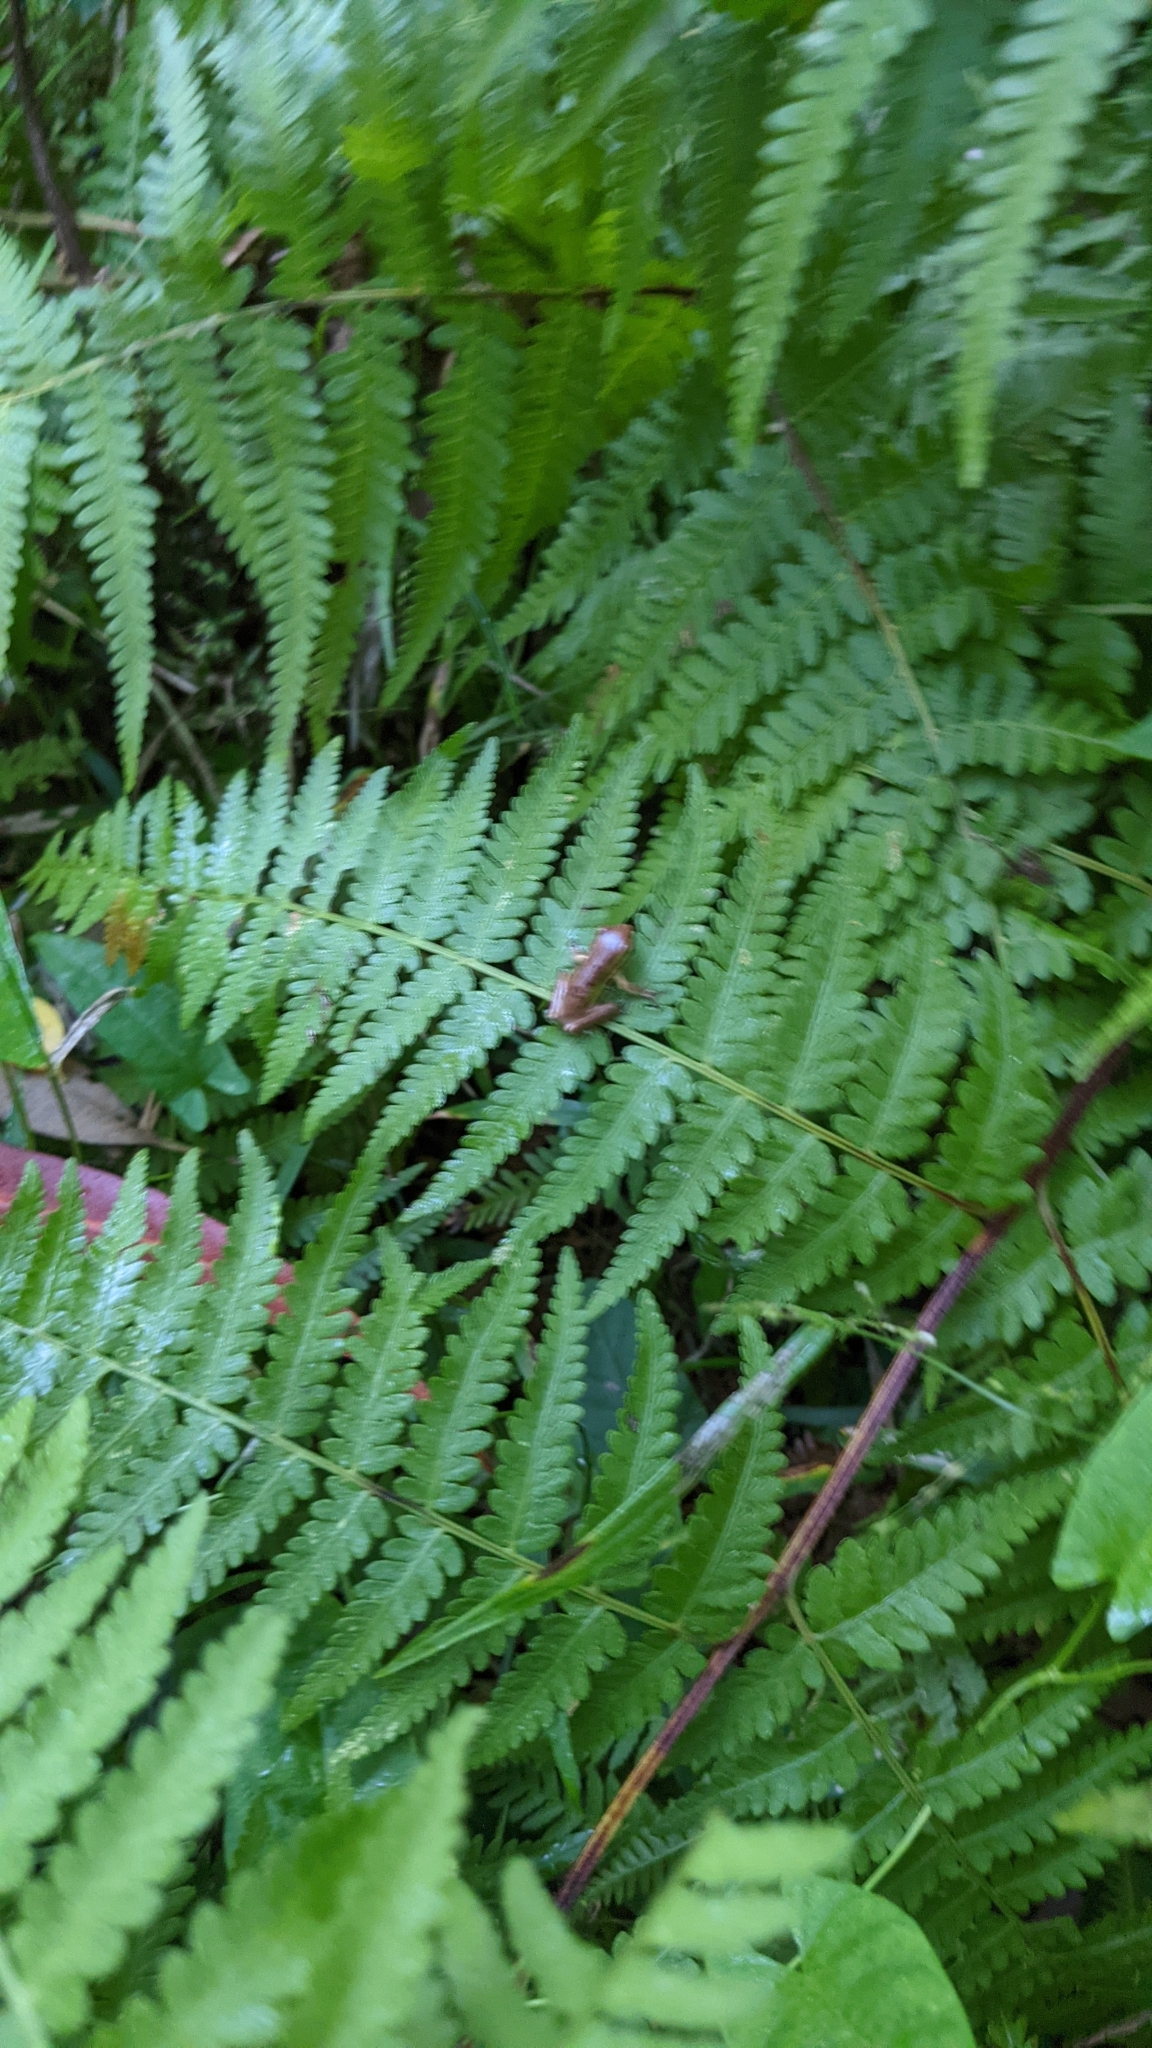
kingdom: Animalia
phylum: Chordata
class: Amphibia
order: Anura
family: Pelodryadidae
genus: Litoria
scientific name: Litoria fallax
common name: Eastern dwarf treefrog
